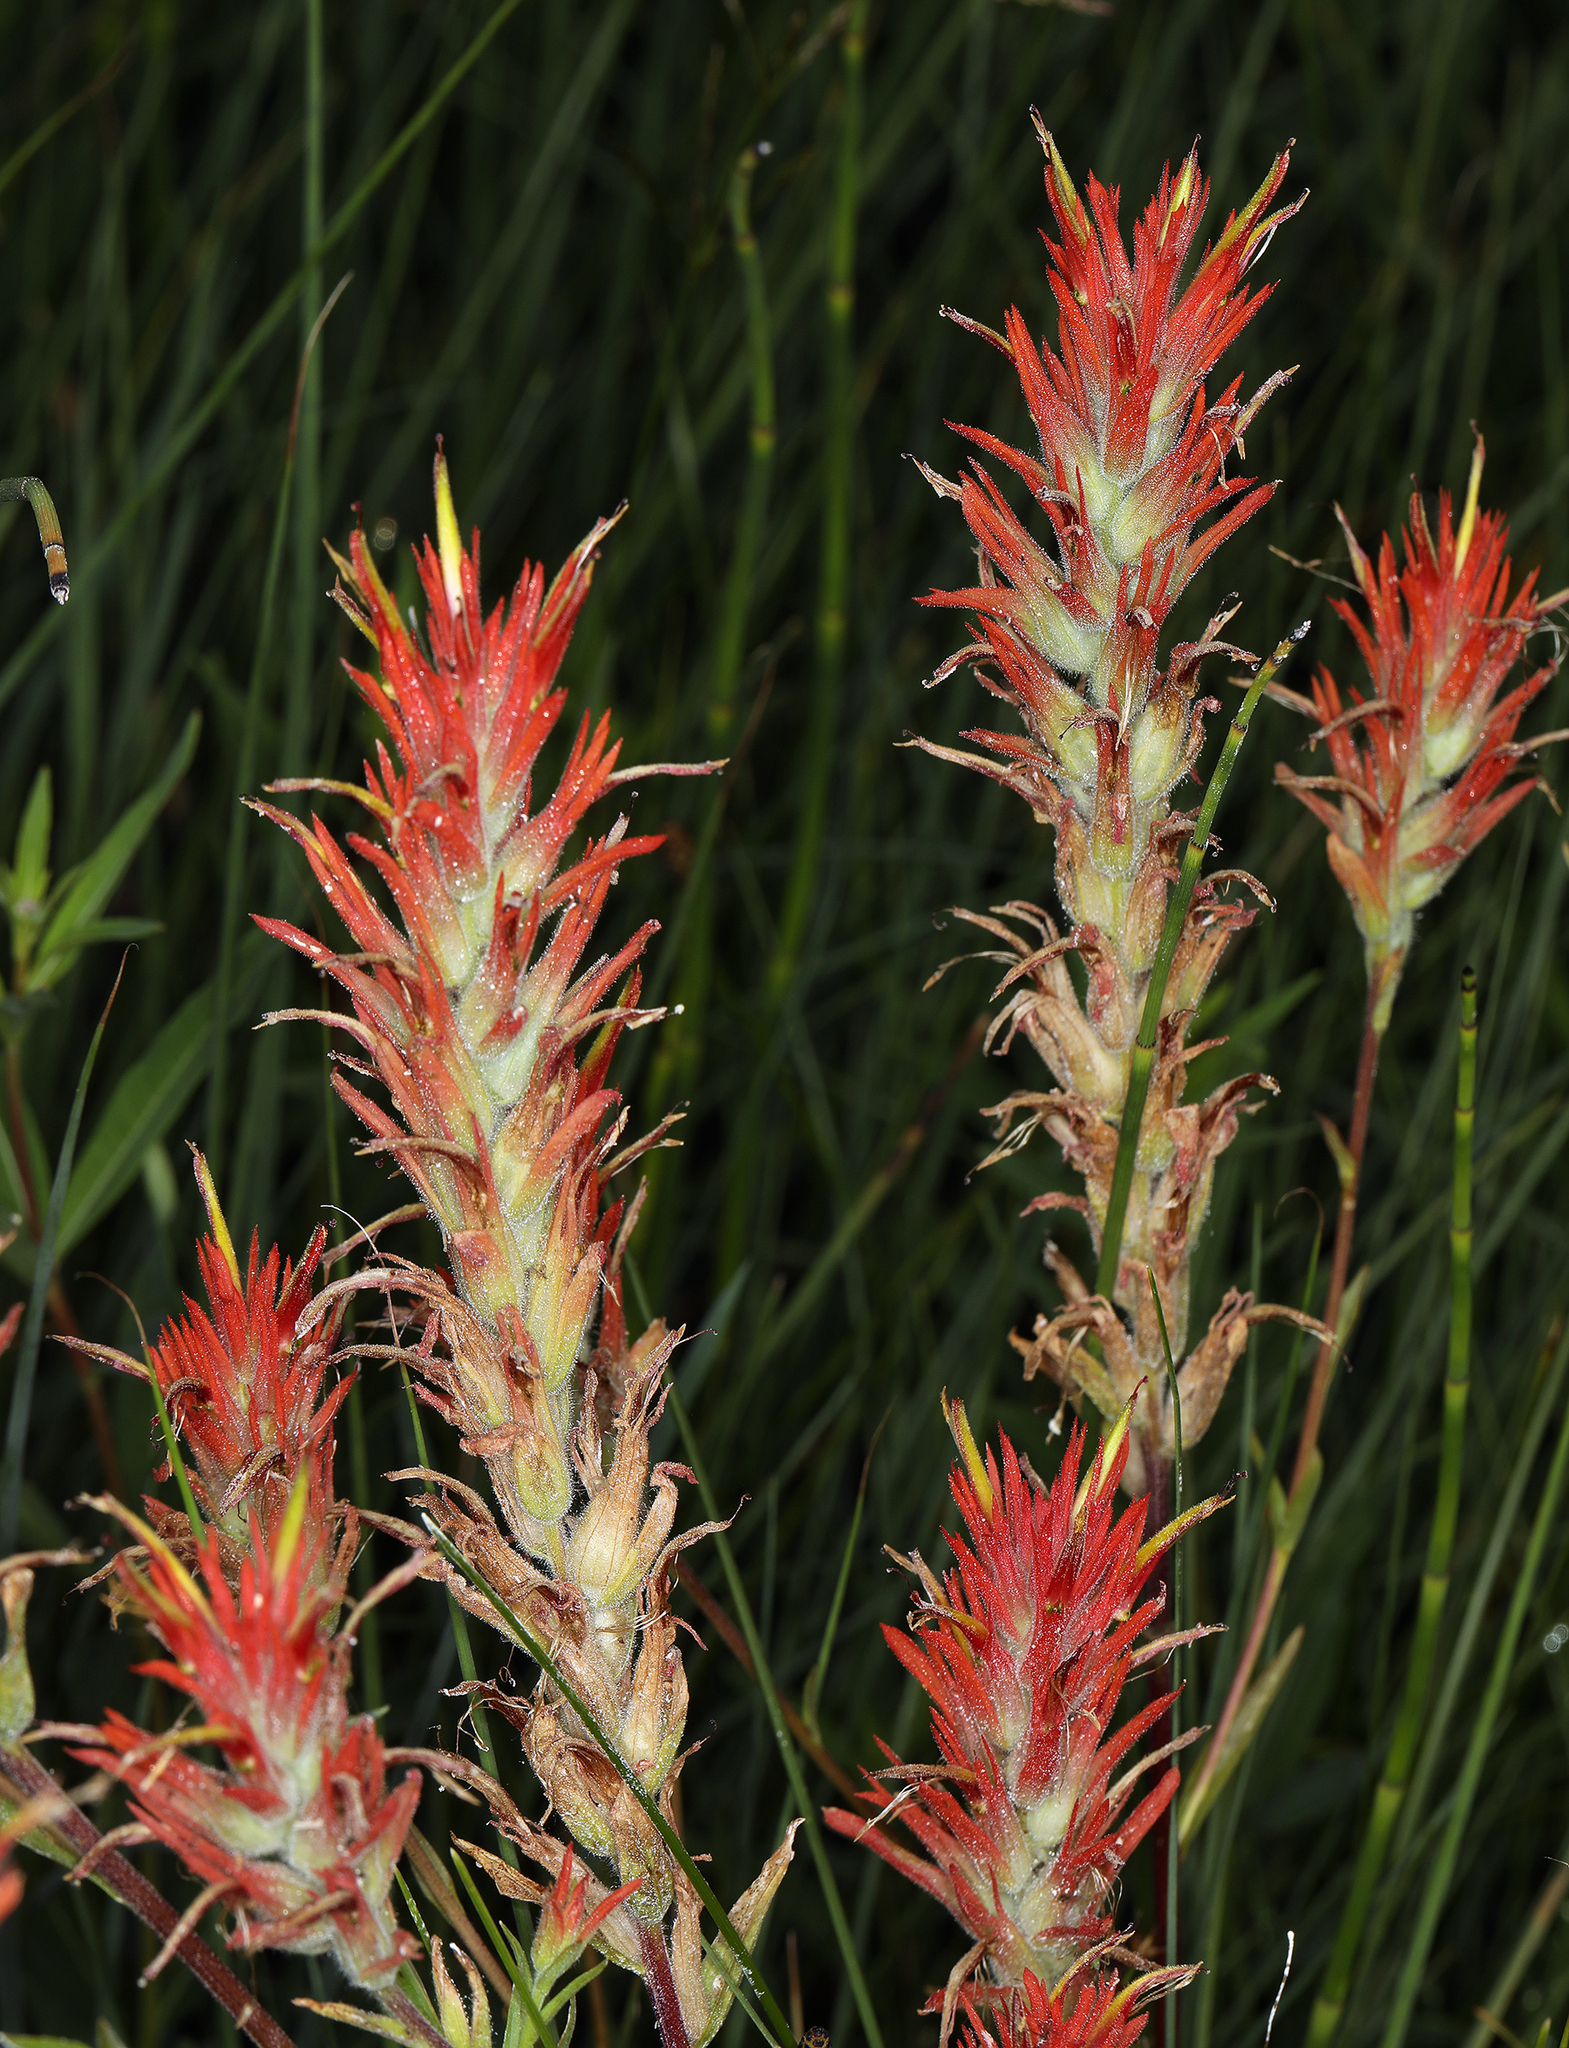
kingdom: Plantae
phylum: Tracheophyta
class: Magnoliopsida
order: Lamiales
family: Orobanchaceae
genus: Castilleja
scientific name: Castilleja miniata
